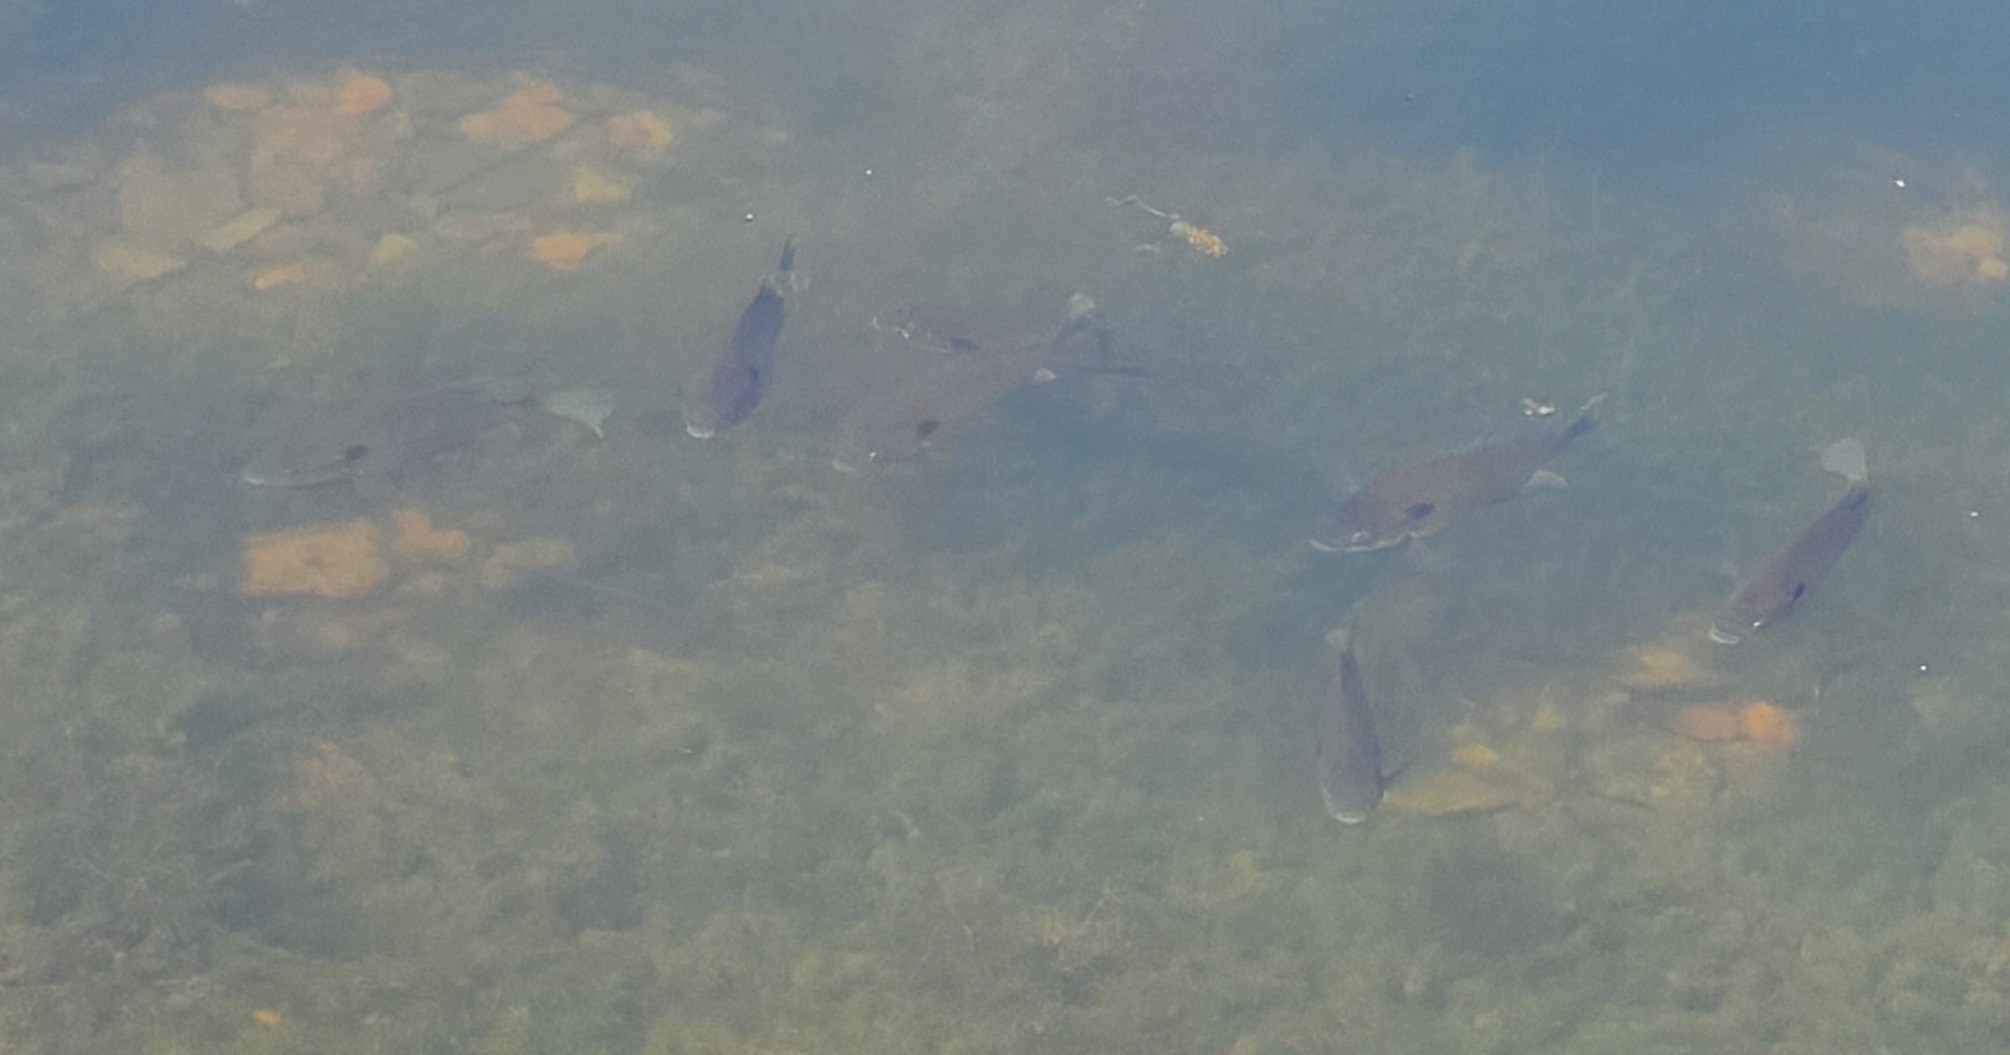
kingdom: Animalia
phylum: Chordata
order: Perciformes
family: Centrarchidae
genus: Lepomis
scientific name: Lepomis macrochirus
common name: Bluegill
